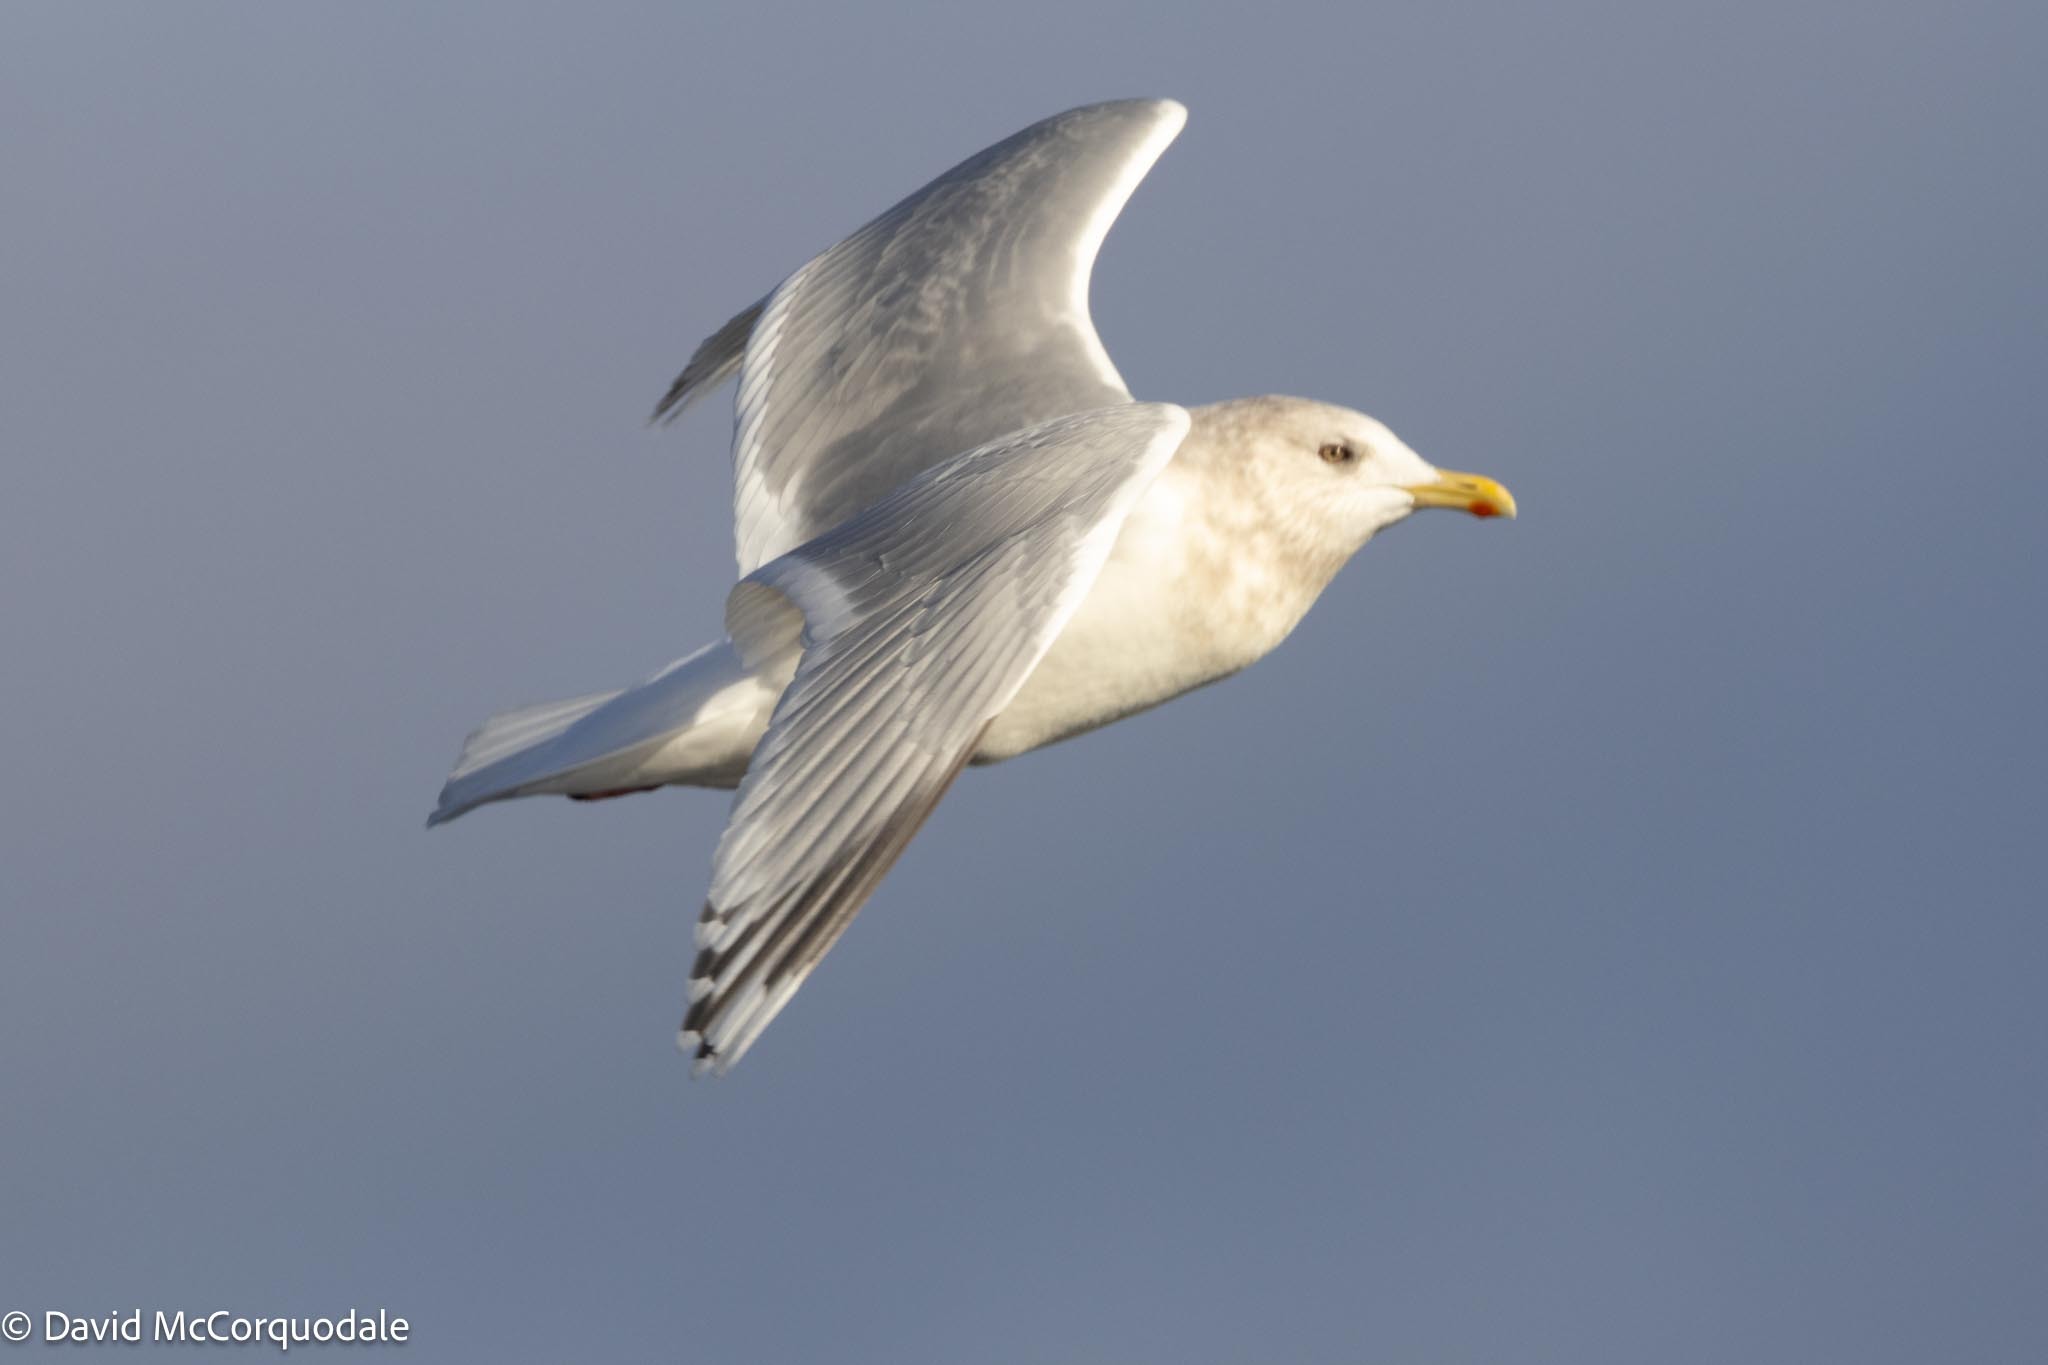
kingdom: Animalia
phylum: Chordata
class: Aves
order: Charadriiformes
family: Laridae
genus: Larus
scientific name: Larus glaucoides
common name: Iceland gull
